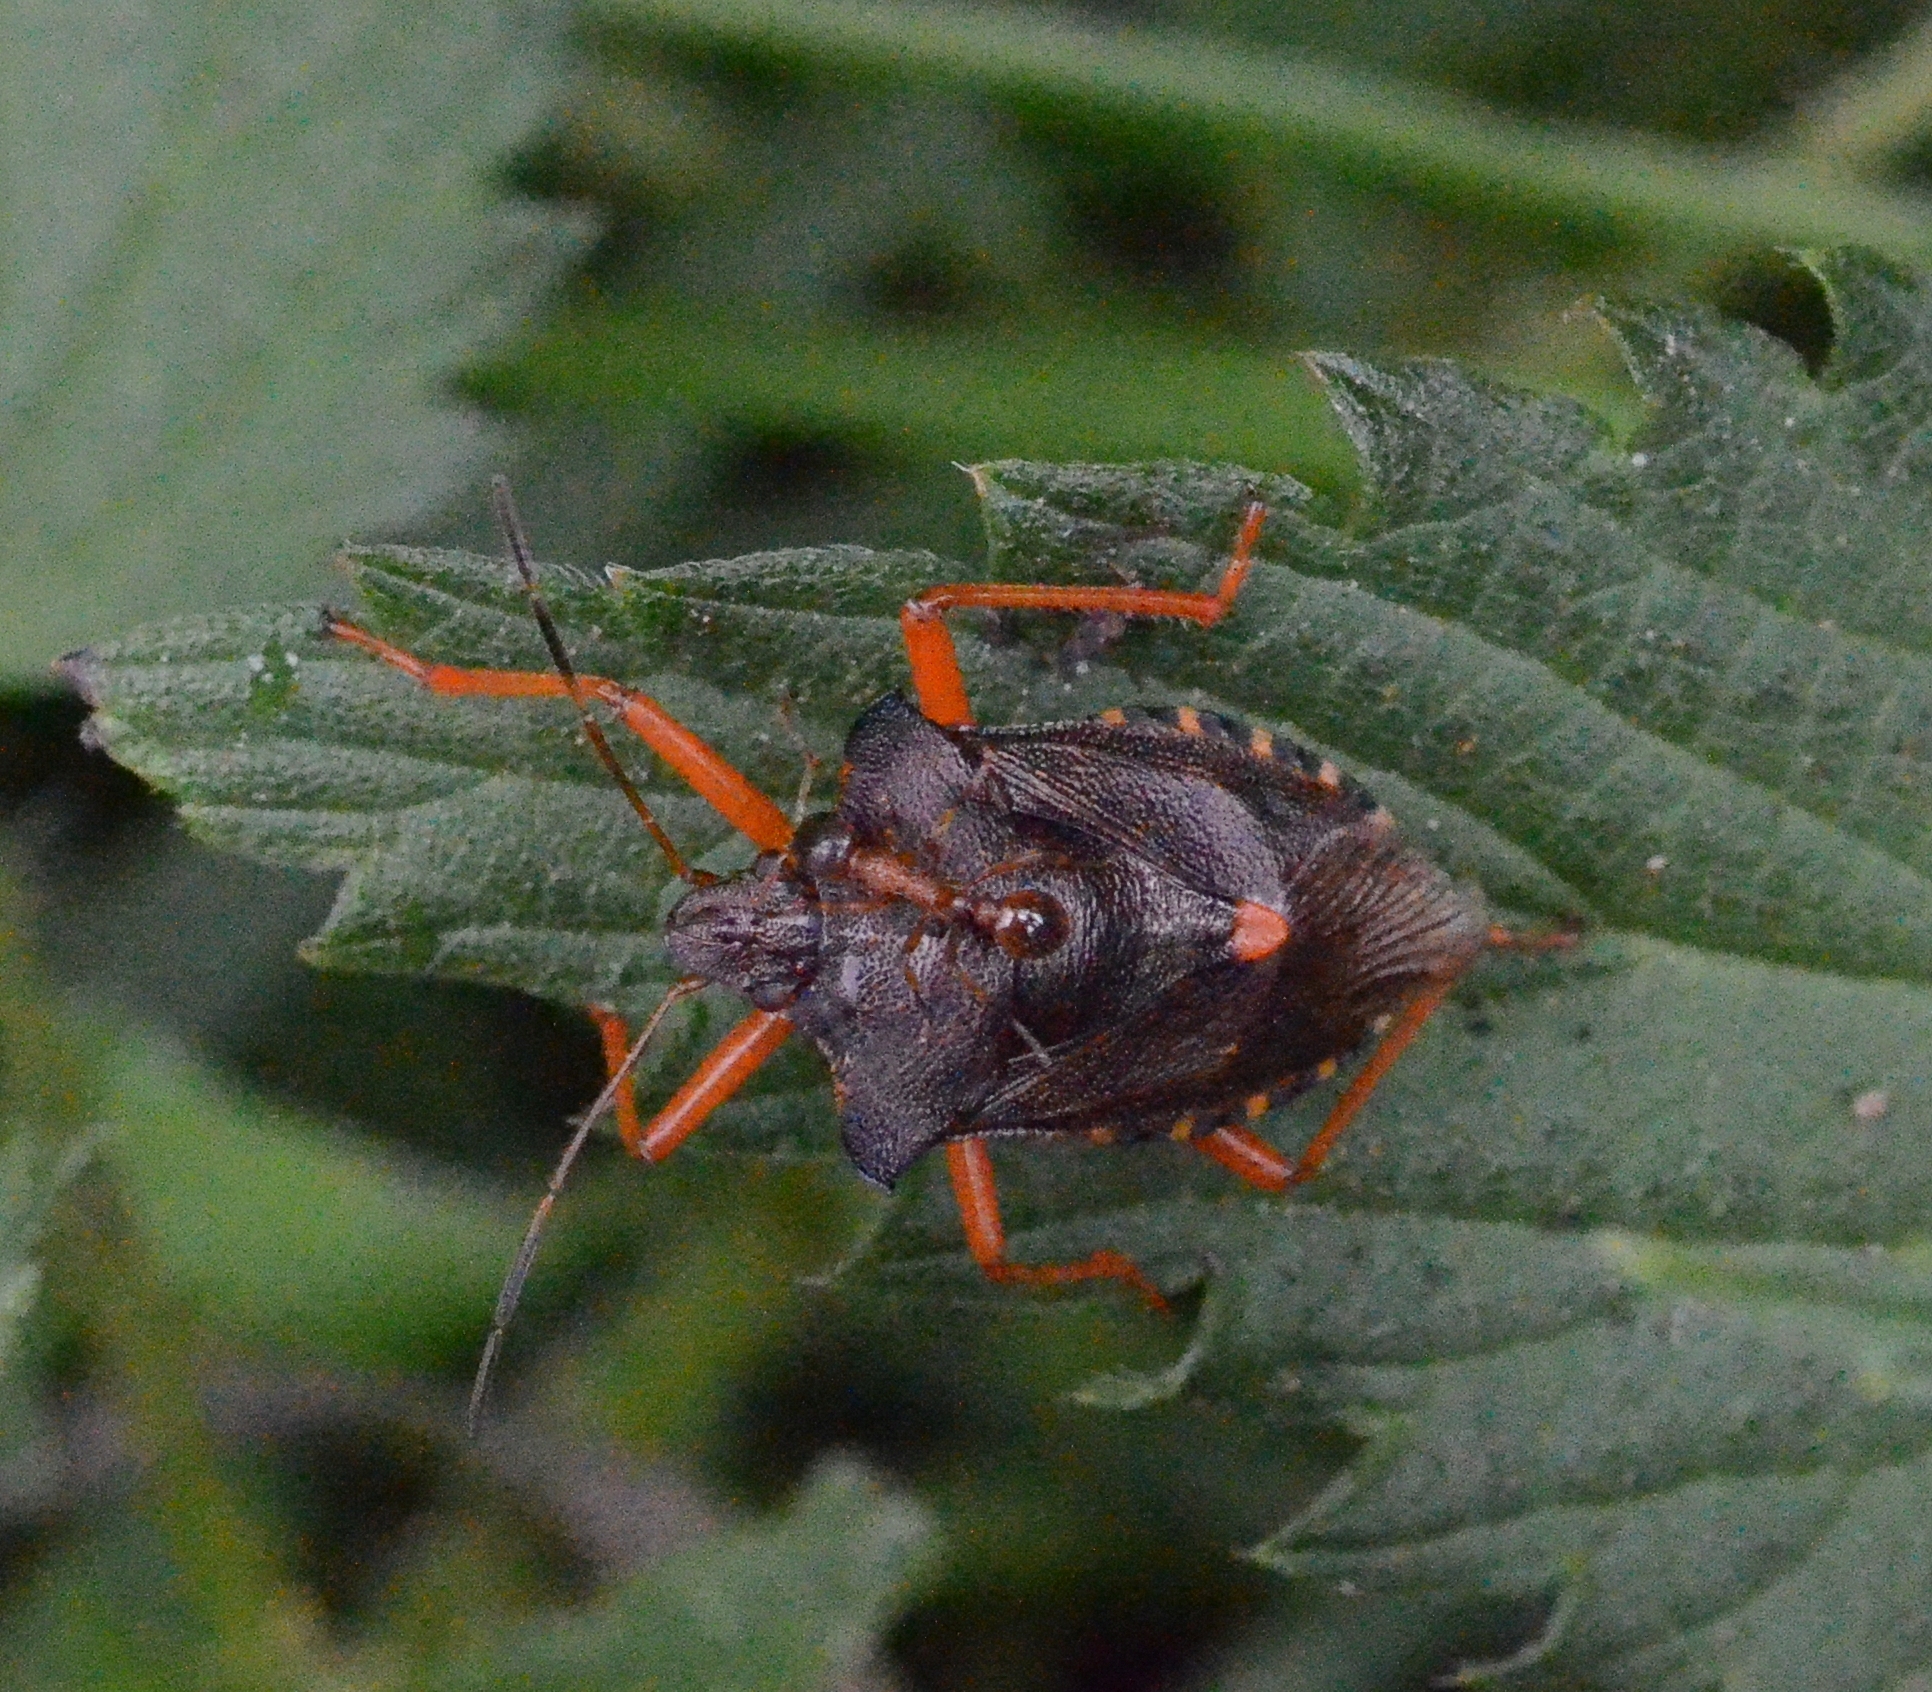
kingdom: Animalia
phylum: Arthropoda
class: Insecta
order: Hemiptera
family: Pentatomidae
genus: Pentatoma
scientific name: Pentatoma rufipes
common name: Forest bug
